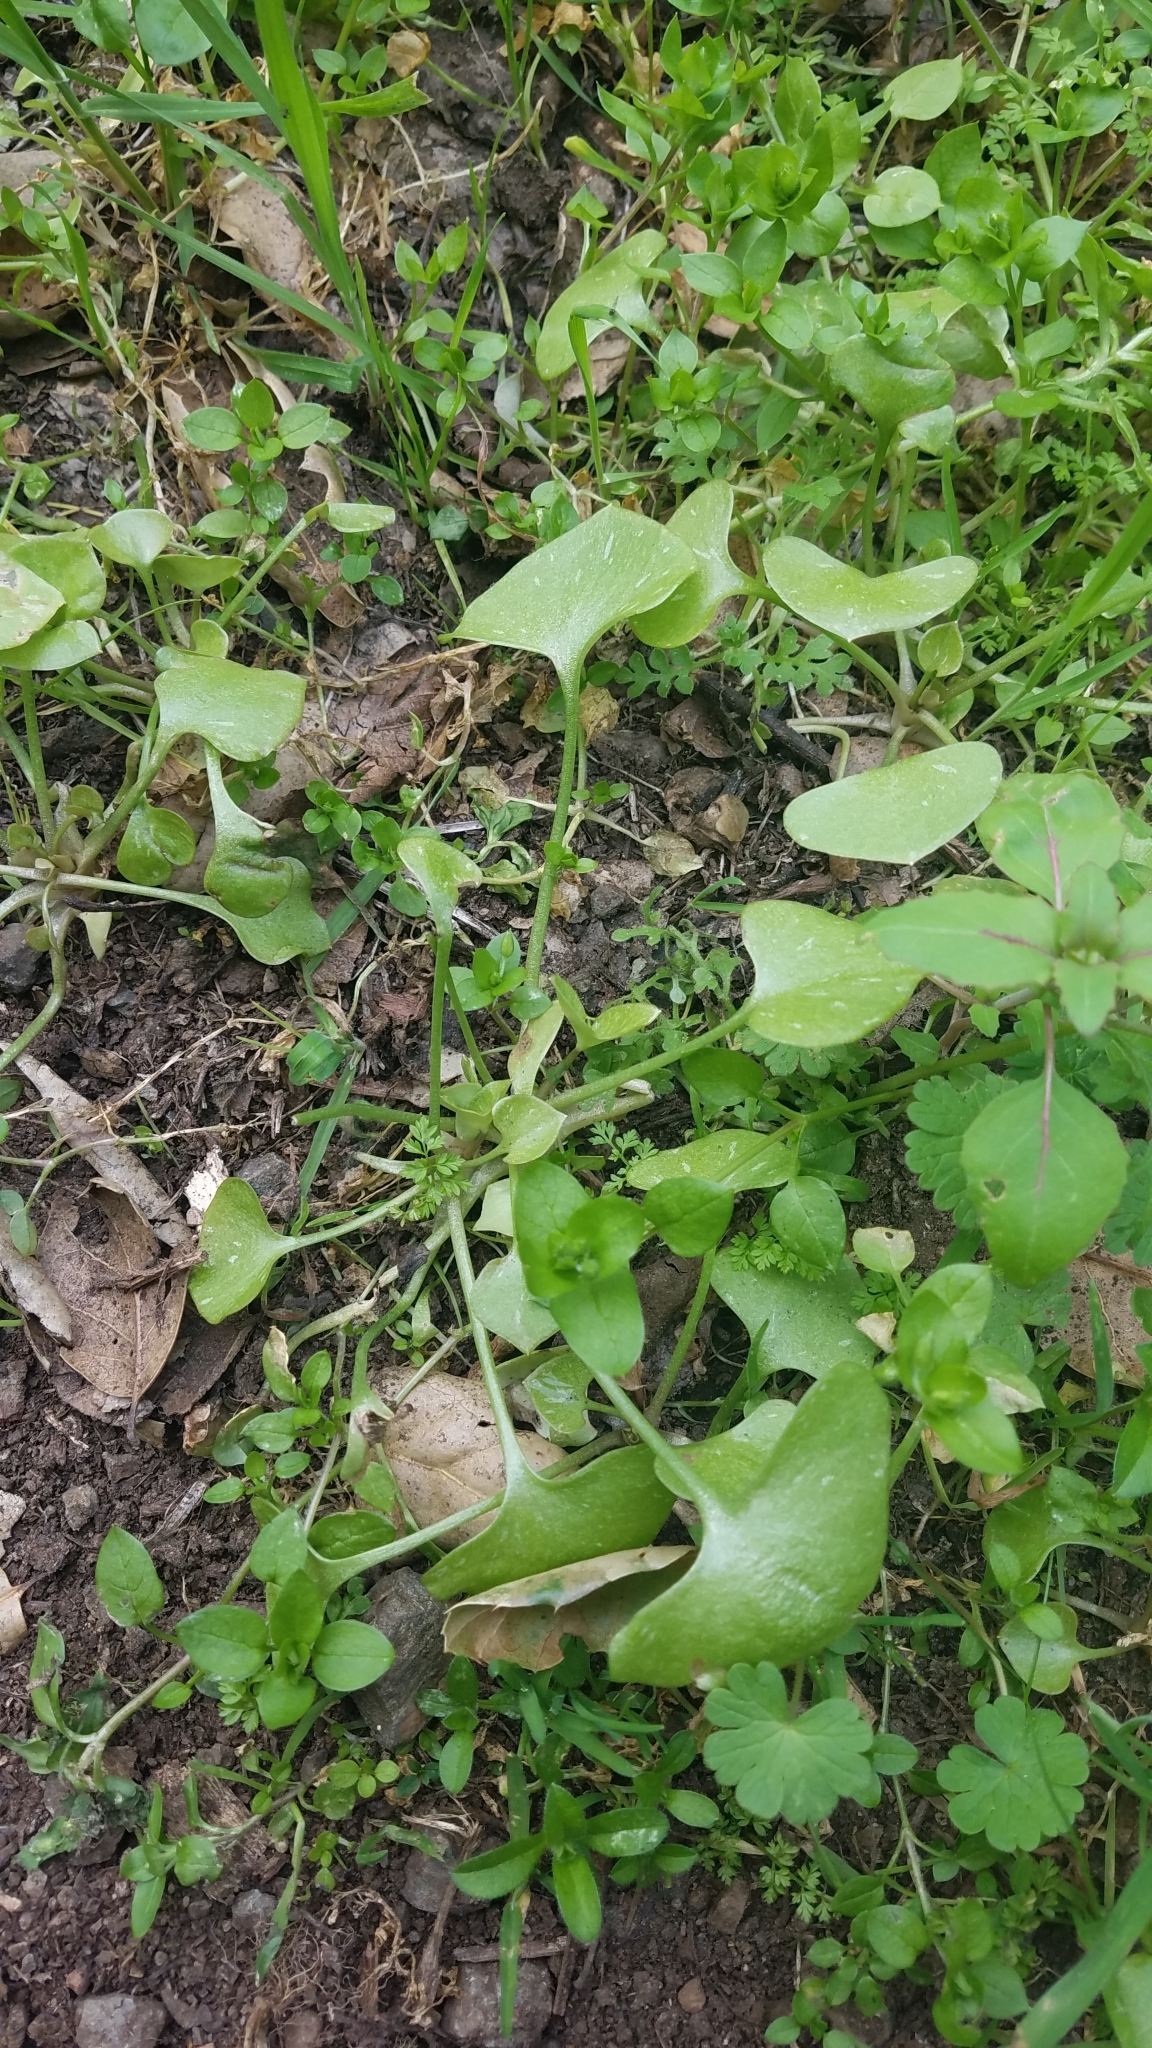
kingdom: Plantae
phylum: Tracheophyta
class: Magnoliopsida
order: Caryophyllales
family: Montiaceae
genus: Claytonia
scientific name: Claytonia perfoliata
